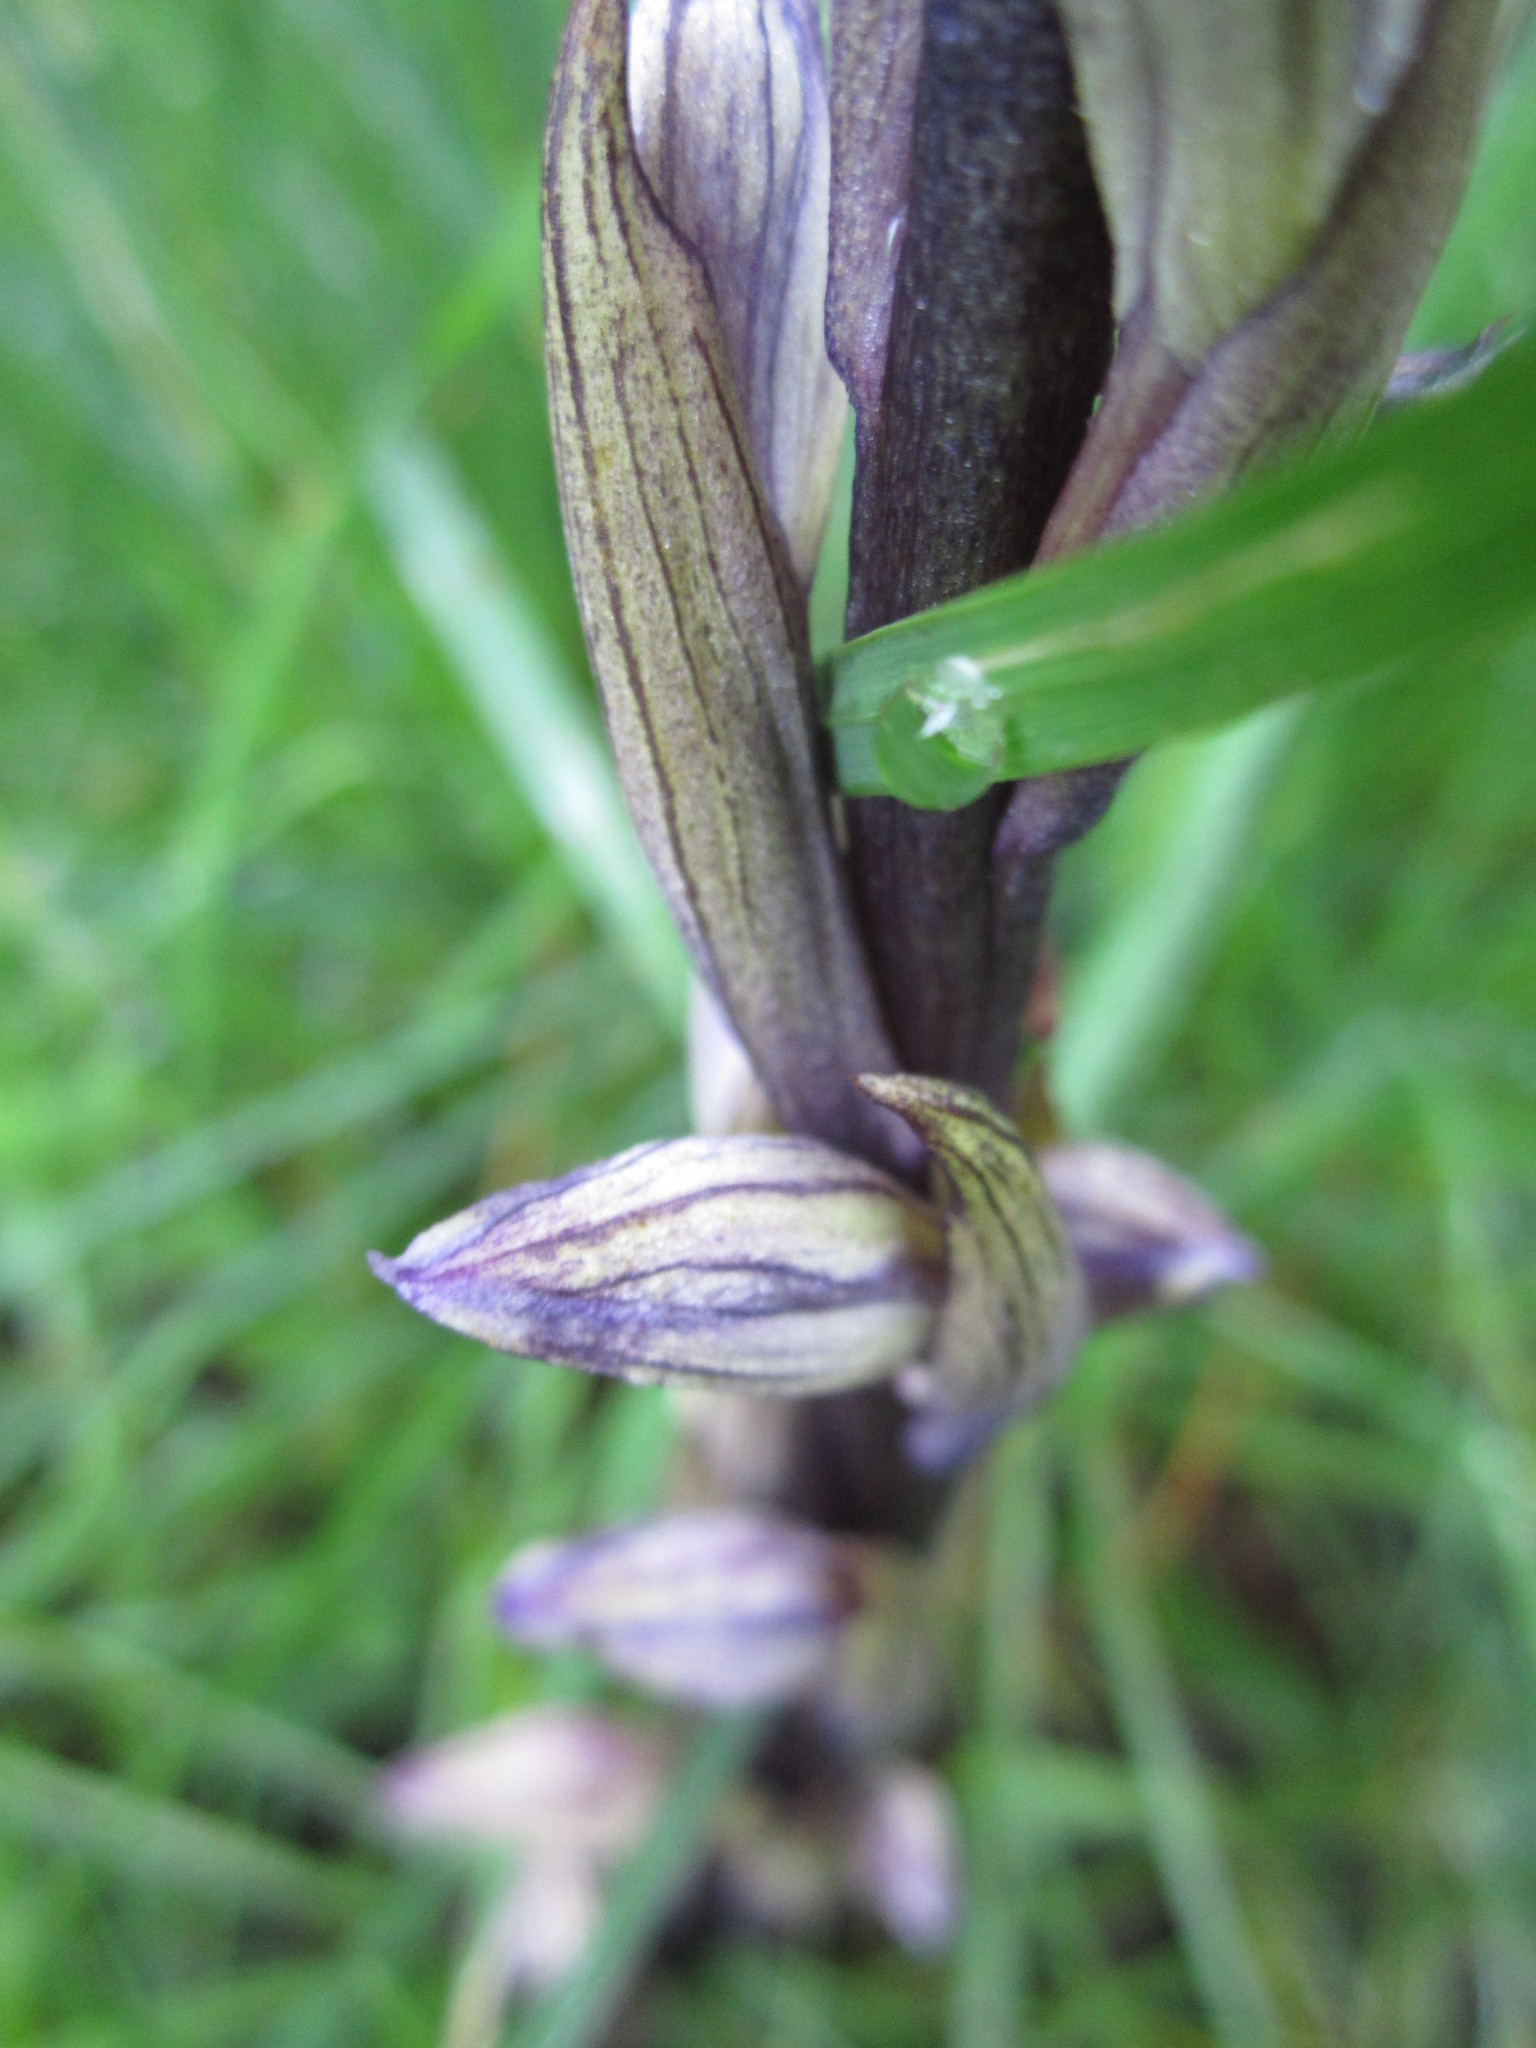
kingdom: Plantae
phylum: Tracheophyta
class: Liliopsida
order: Asparagales
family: Orchidaceae
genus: Limodorum
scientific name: Limodorum abortivum
